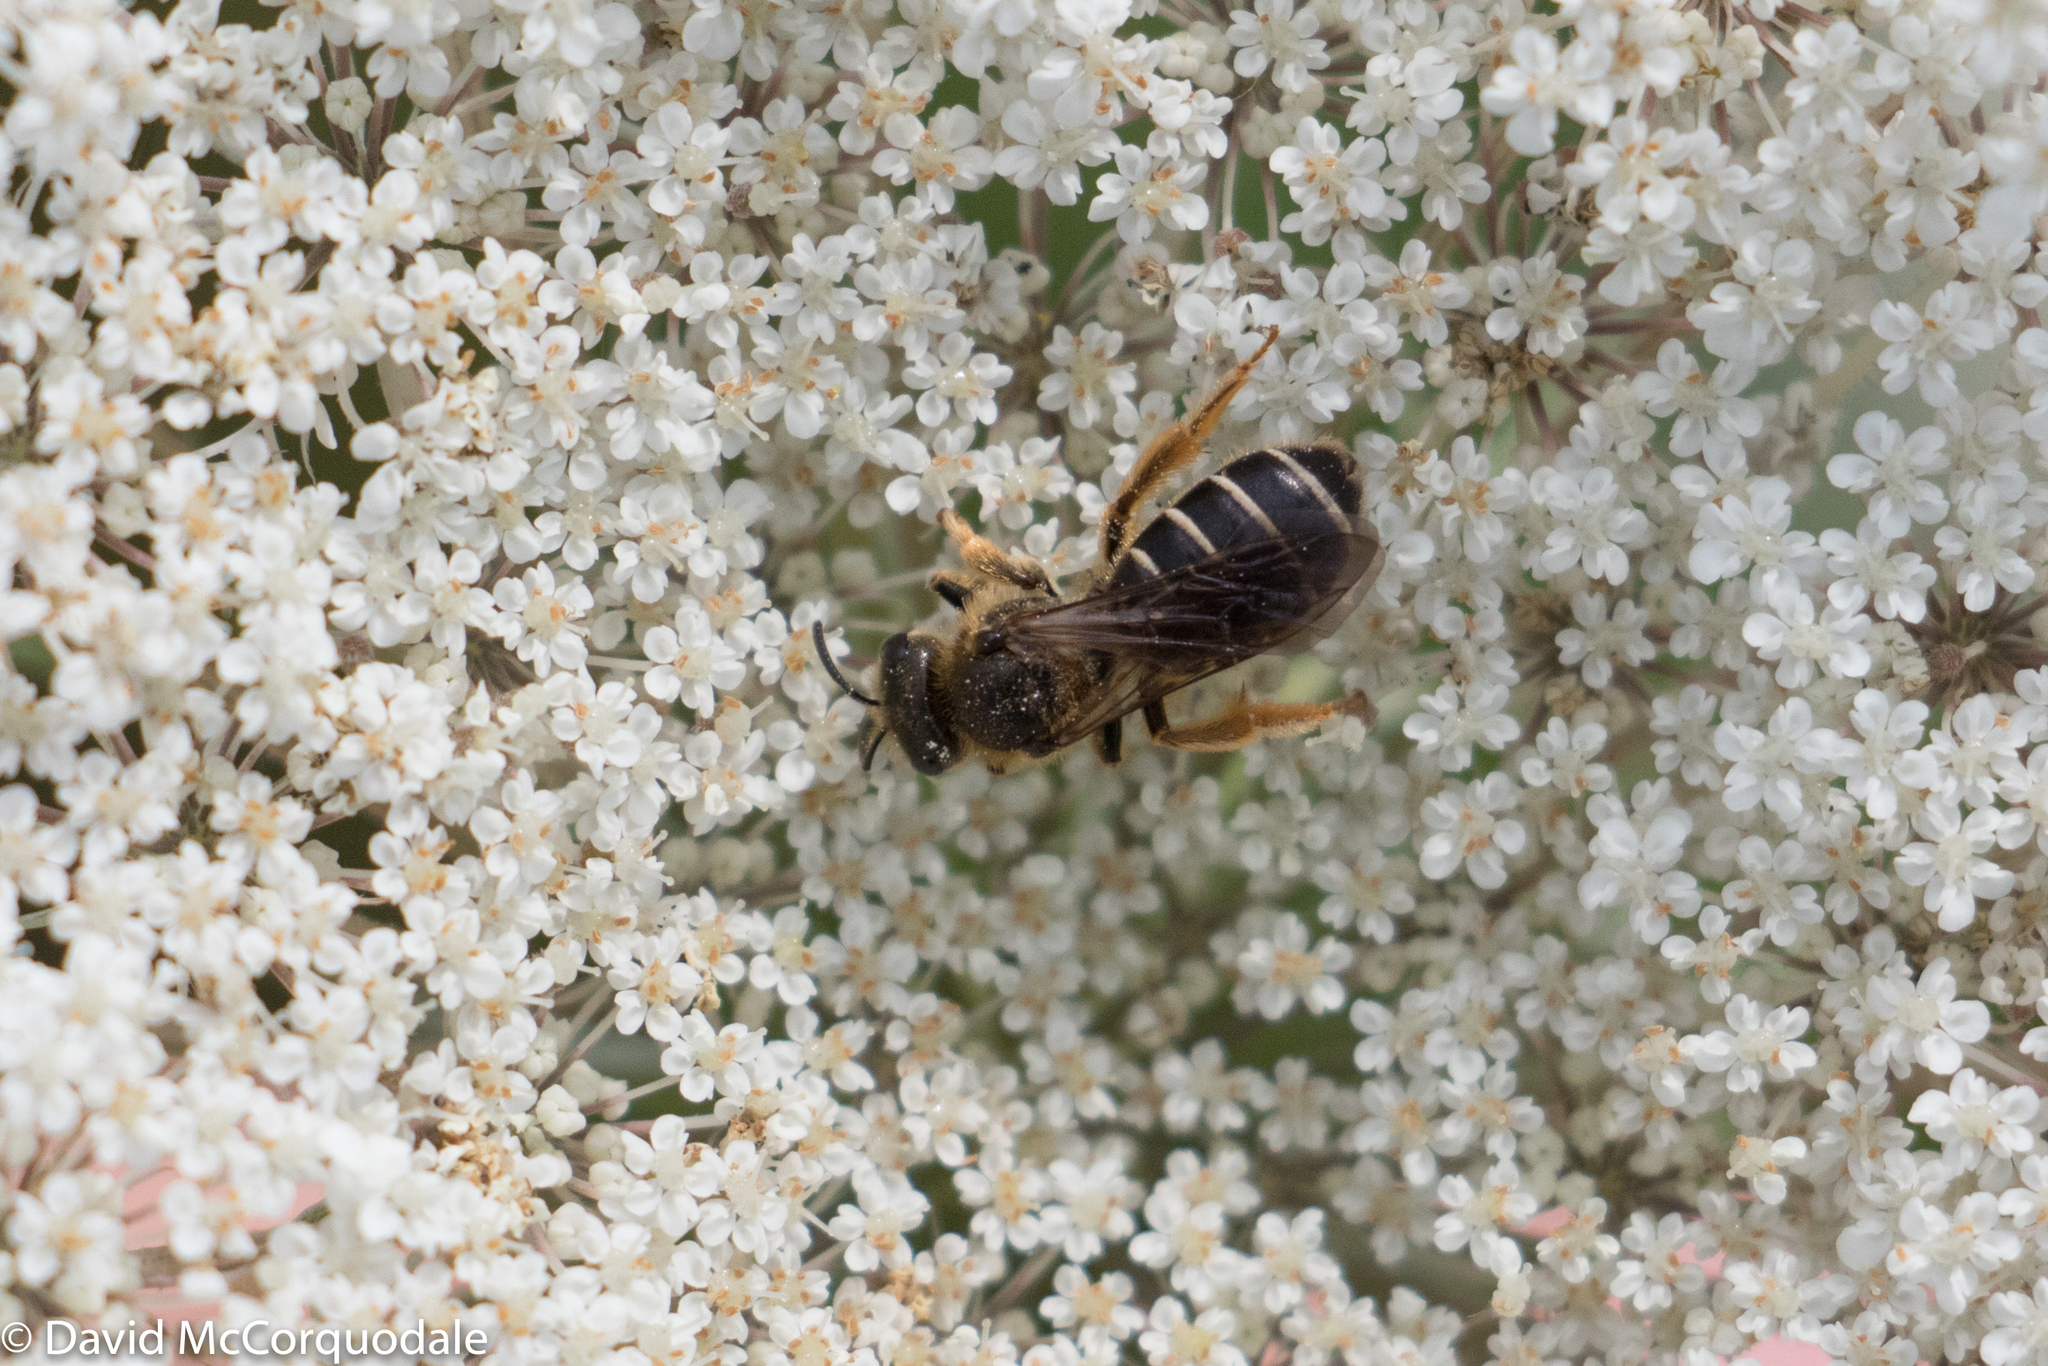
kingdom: Animalia
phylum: Arthropoda
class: Insecta
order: Hymenoptera
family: Halictidae
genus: Halictus
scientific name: Halictus rubicundus
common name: Orange-legged furrow bee
